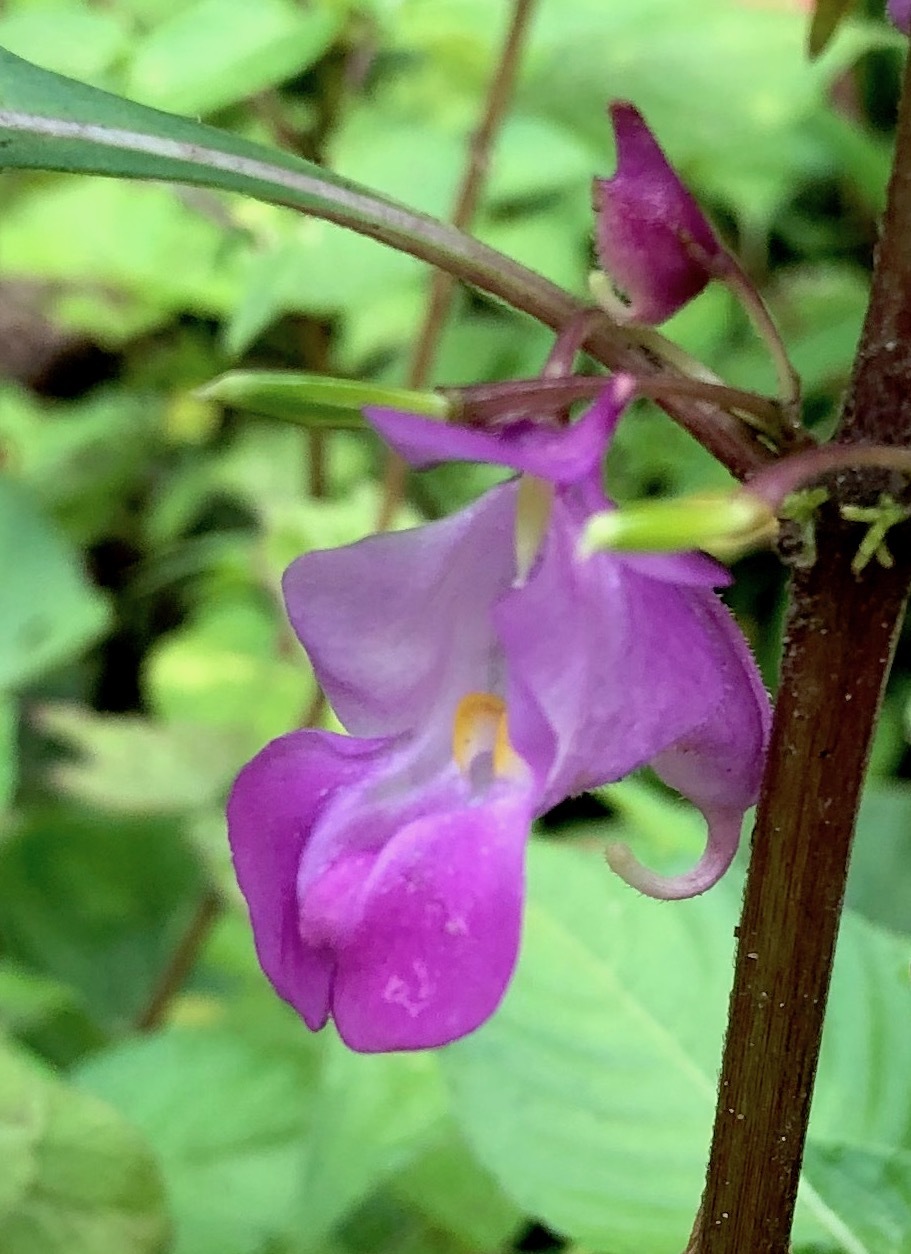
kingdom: Plantae
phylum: Tracheophyta
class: Magnoliopsida
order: Ericales
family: Balsaminaceae
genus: Impatiens
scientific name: Impatiens balsamina
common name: Balsam
